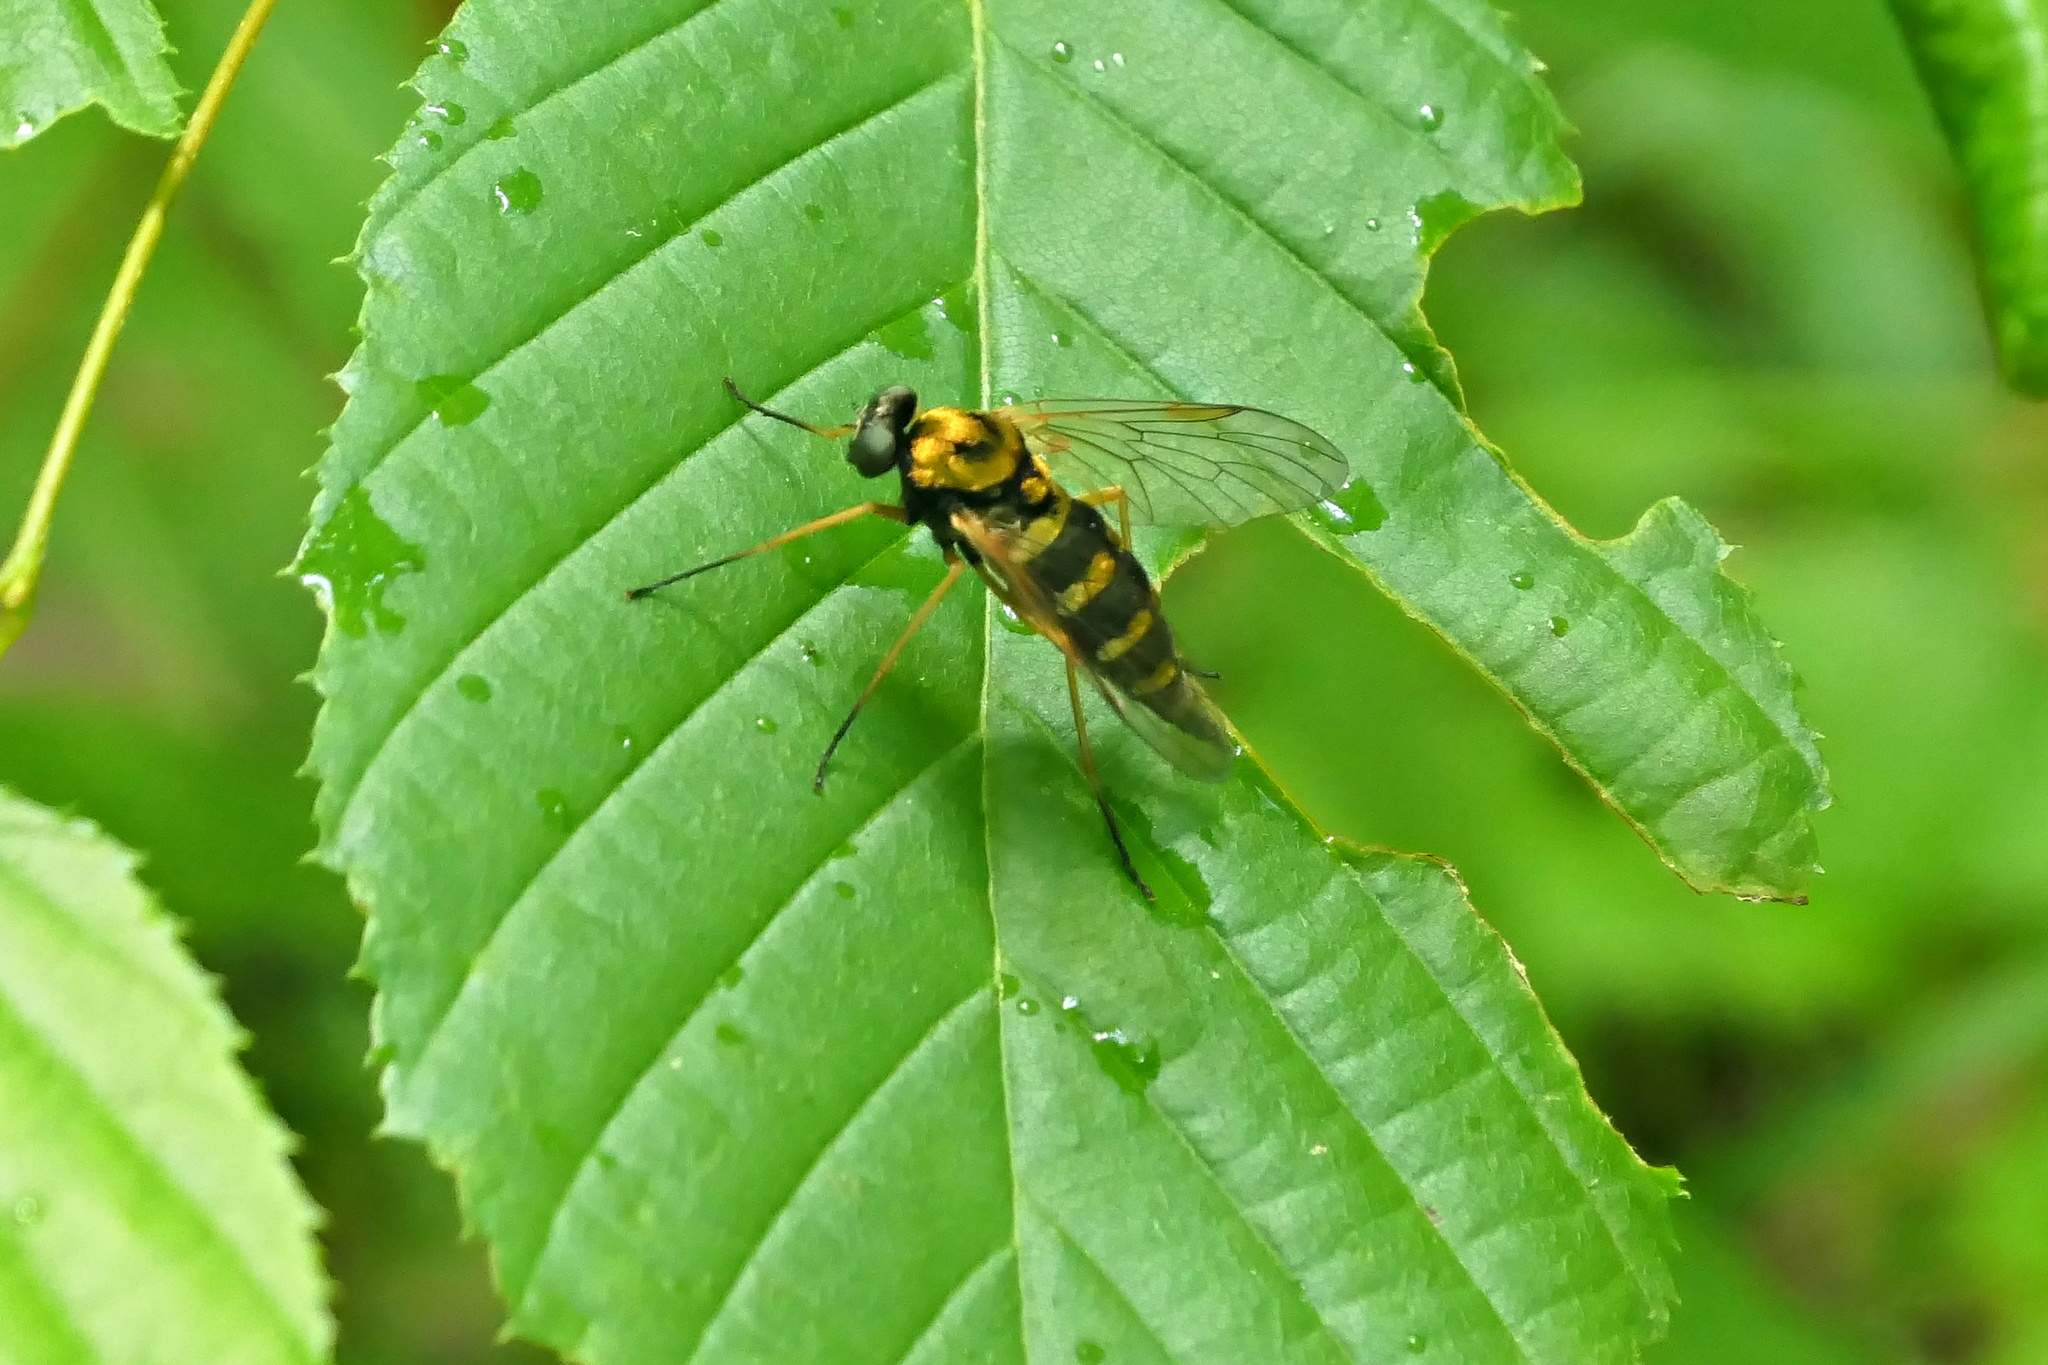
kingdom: Animalia
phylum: Arthropoda
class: Insecta
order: Diptera
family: Rhagionidae
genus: Chrysopilus
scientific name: Chrysopilus ornatus
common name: Ornate snipe fly
